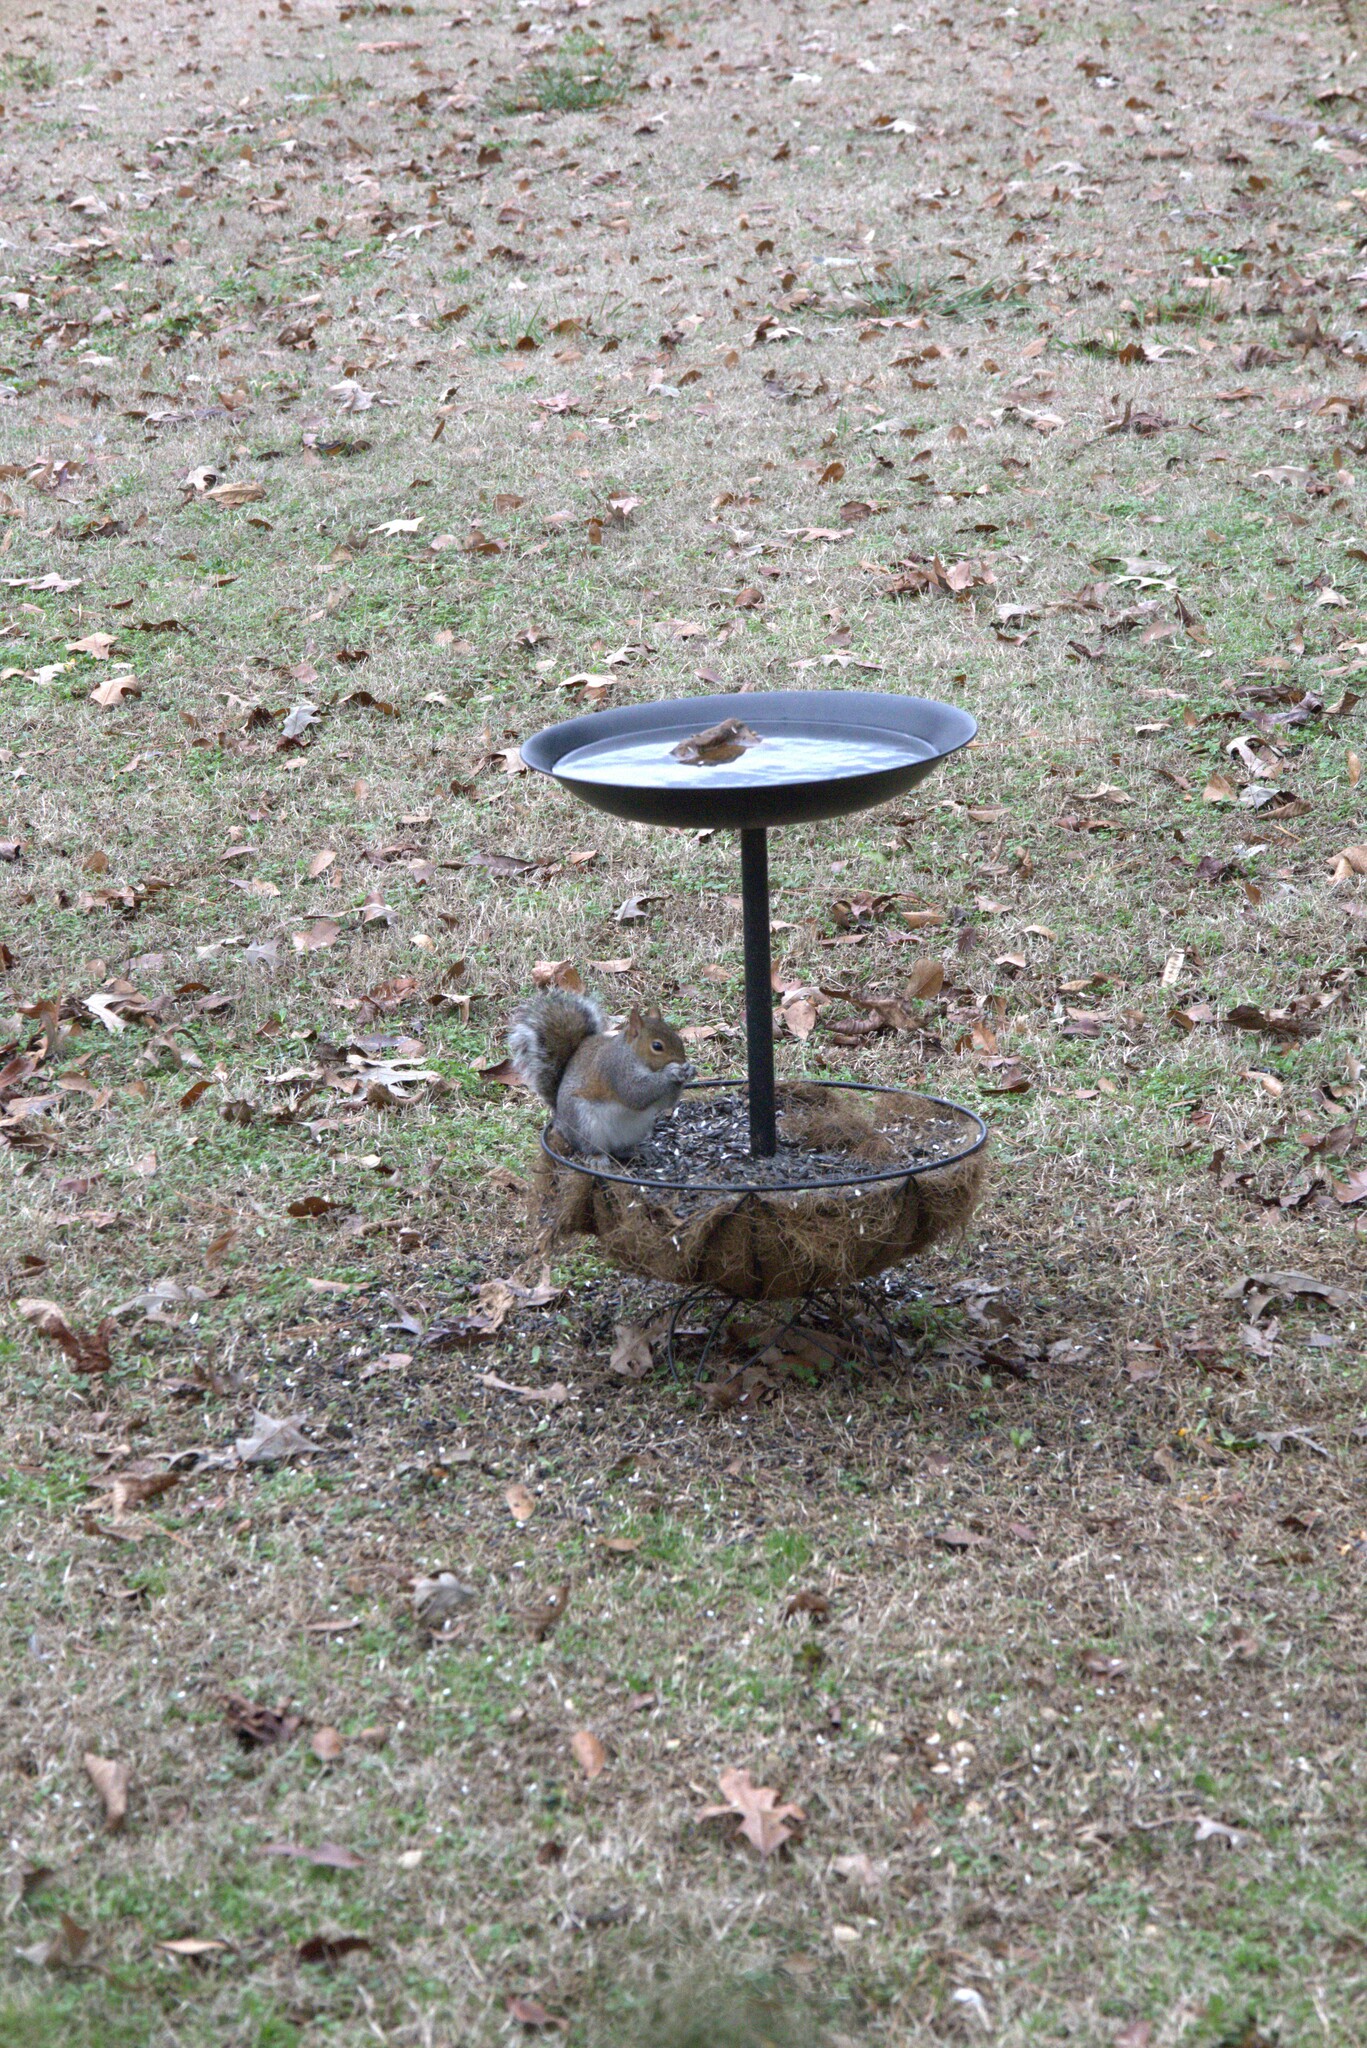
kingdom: Animalia
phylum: Chordata
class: Mammalia
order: Rodentia
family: Sciuridae
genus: Sciurus
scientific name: Sciurus carolinensis
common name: Eastern gray squirrel
